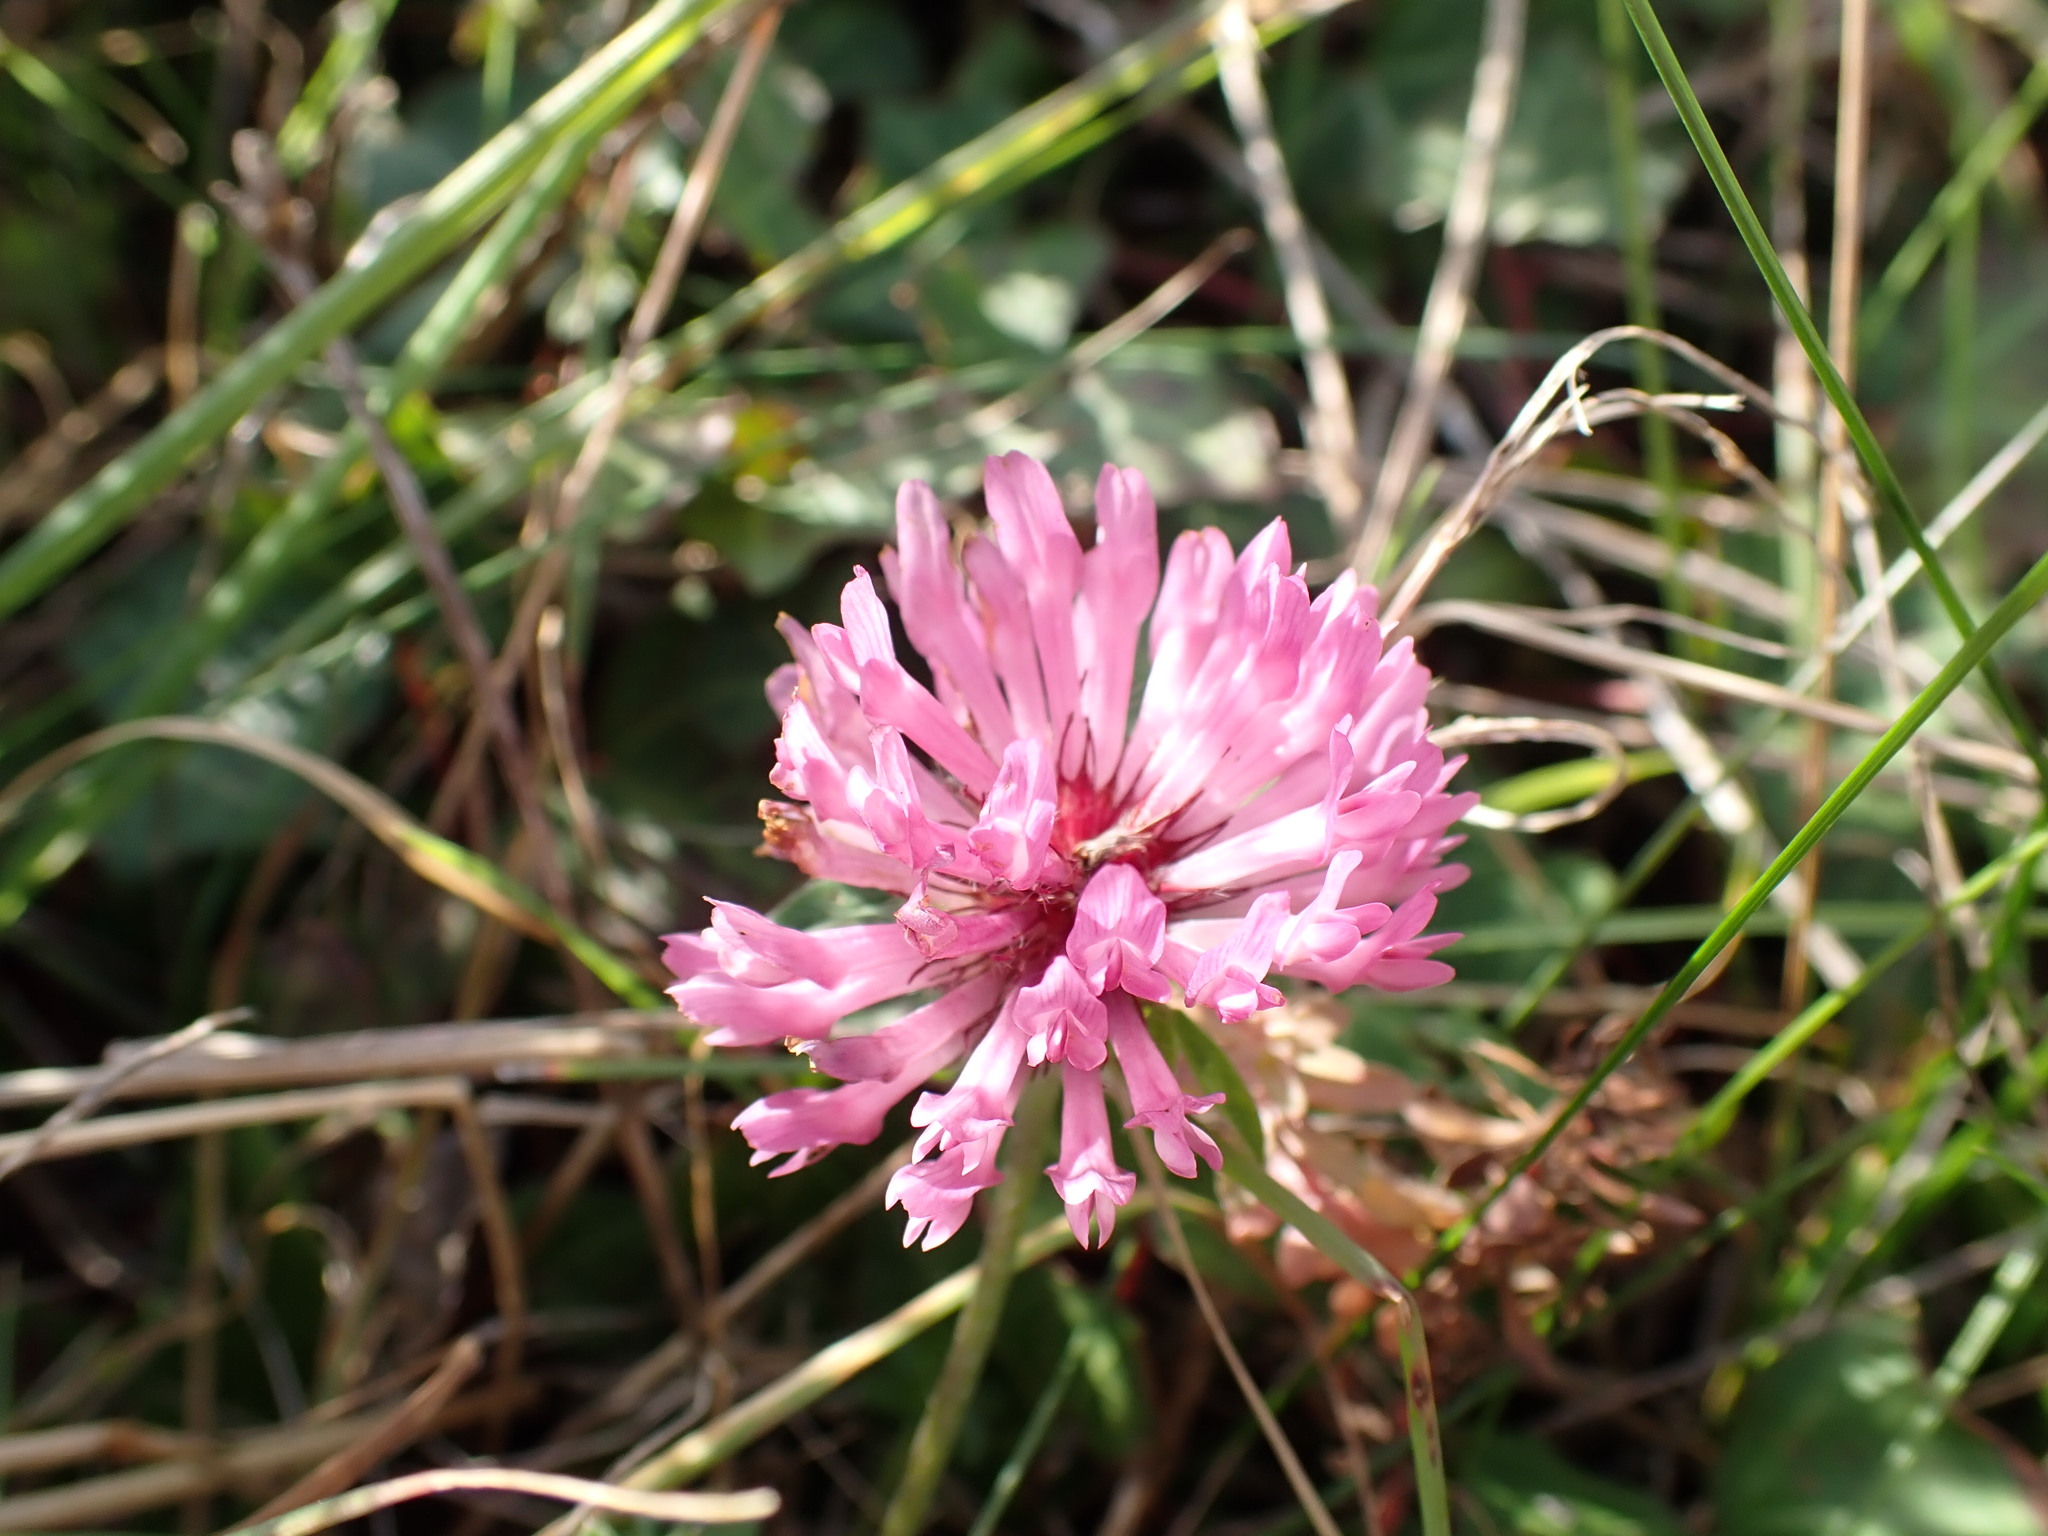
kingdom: Plantae
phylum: Tracheophyta
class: Magnoliopsida
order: Fabales
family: Fabaceae
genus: Trifolium
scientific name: Trifolium pratense
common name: Red clover
